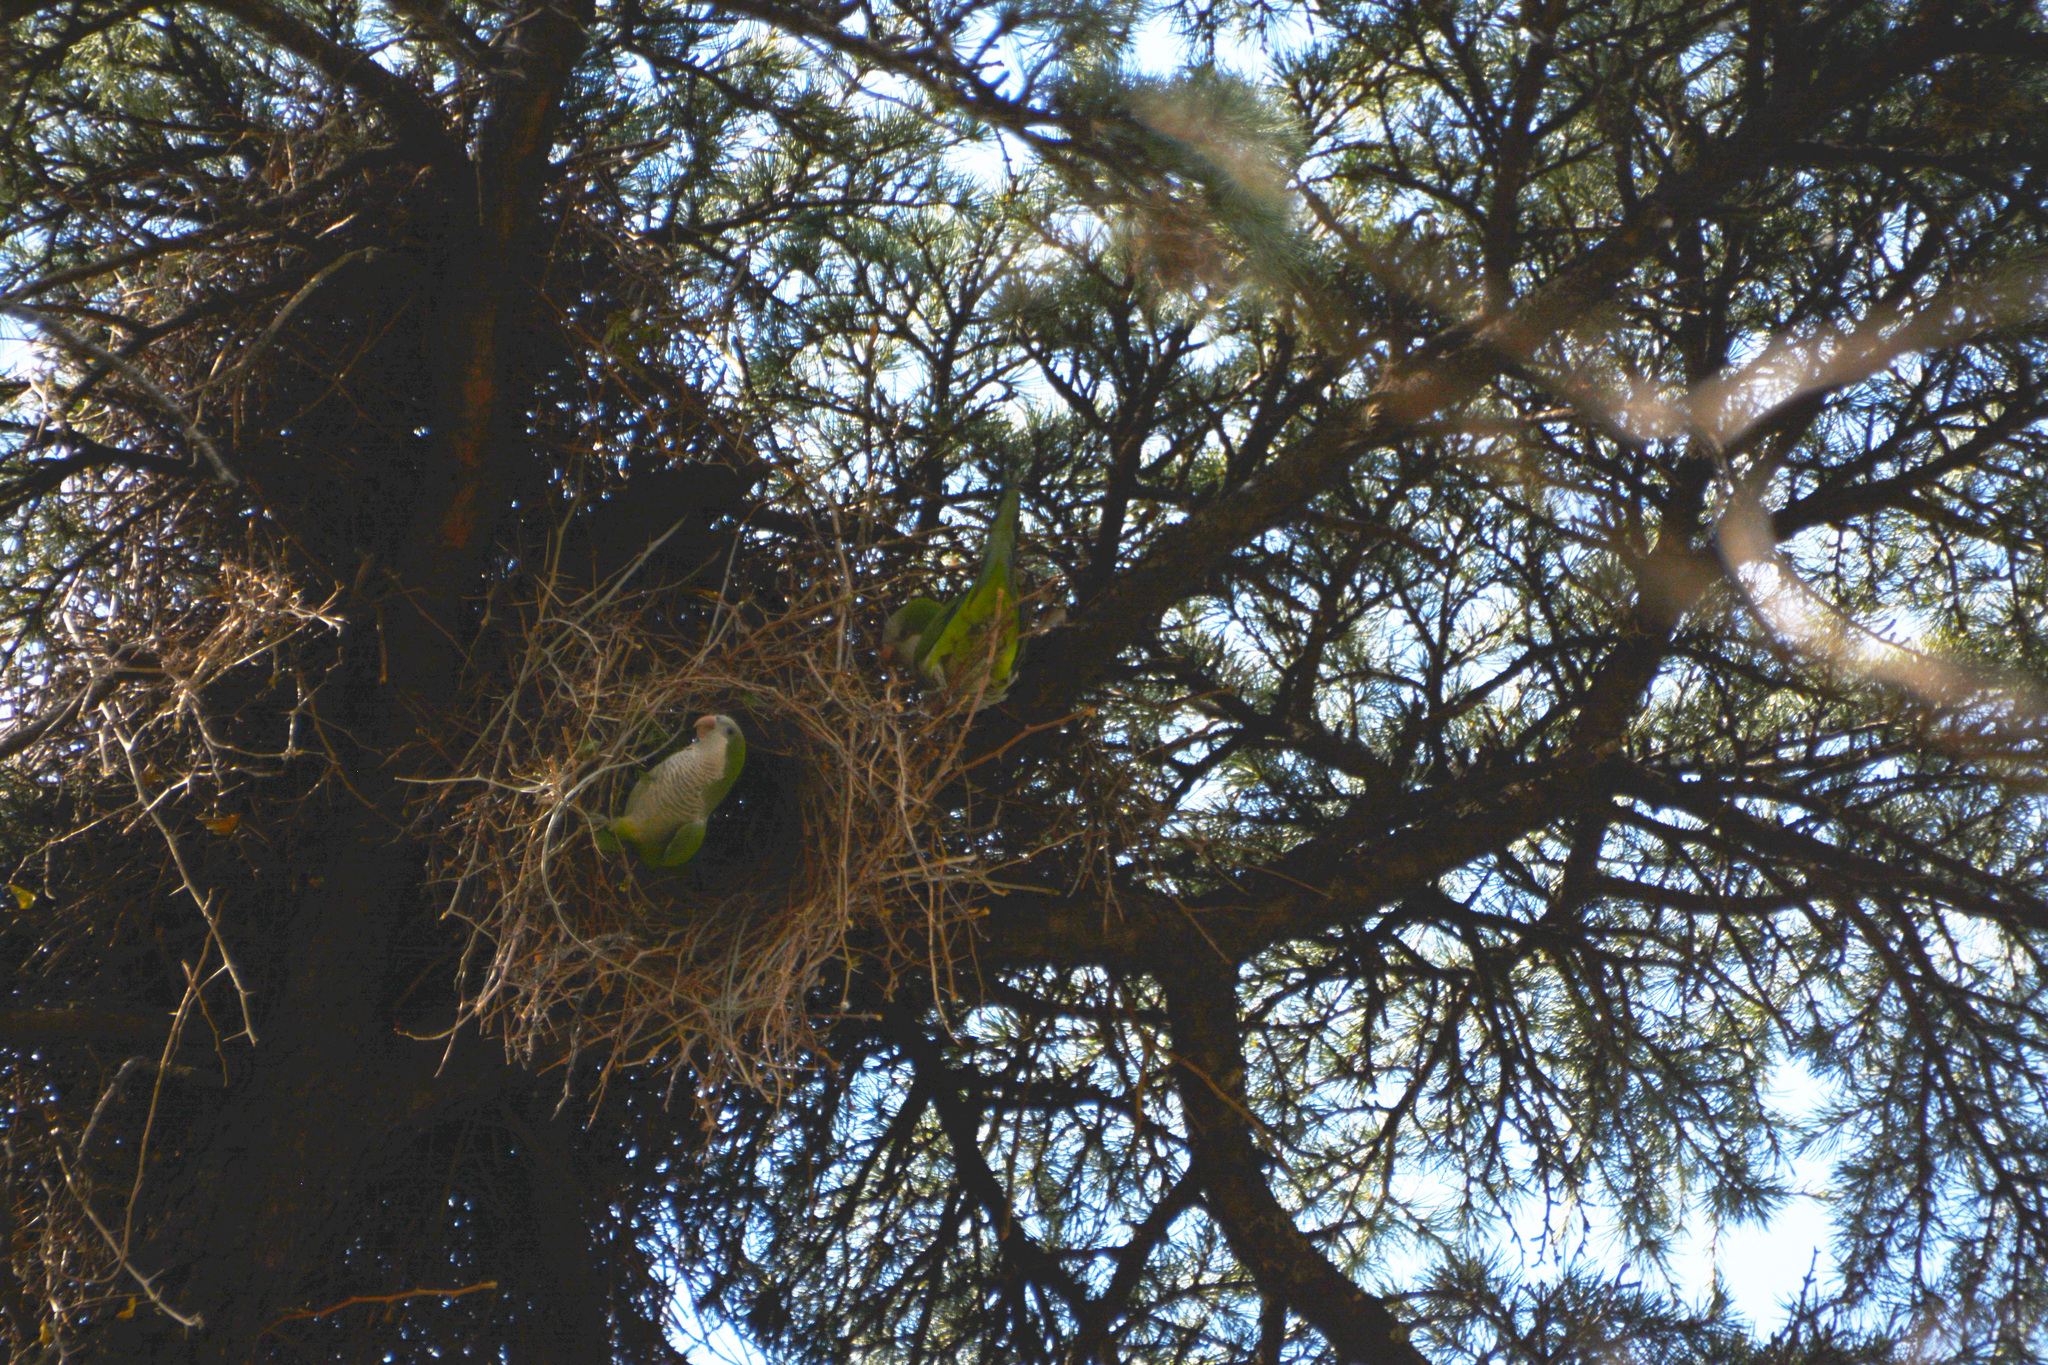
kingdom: Animalia
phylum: Chordata
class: Aves
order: Psittaciformes
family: Psittacidae
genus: Myiopsitta
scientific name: Myiopsitta monachus
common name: Monk parakeet
